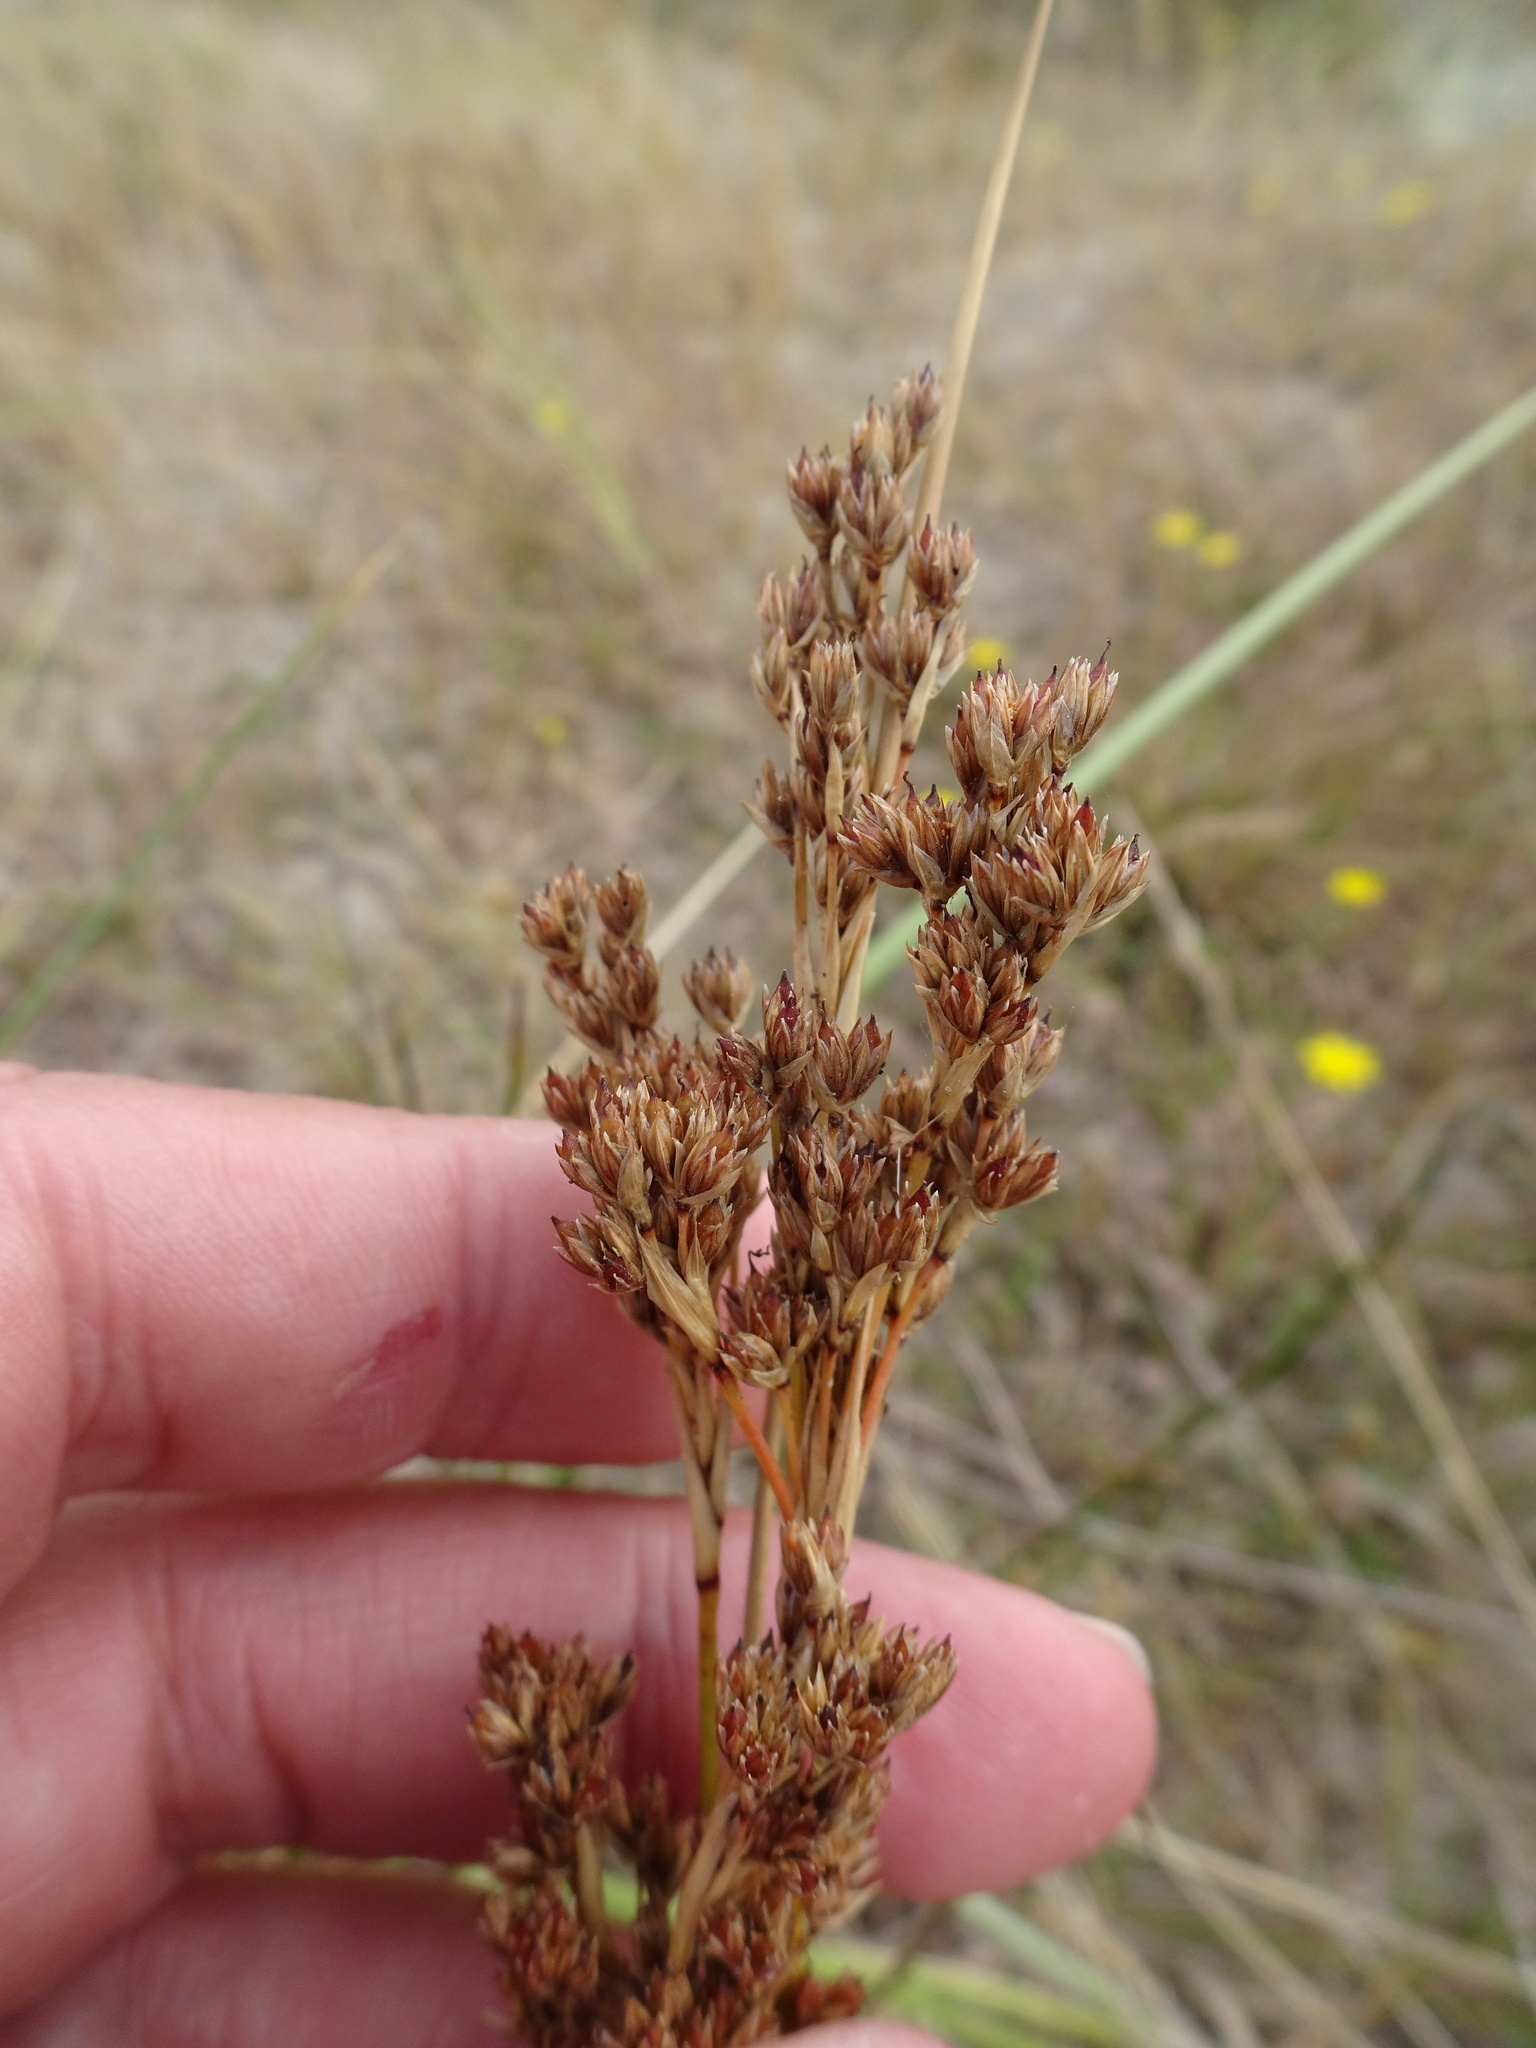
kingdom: Plantae
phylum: Tracheophyta
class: Liliopsida
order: Poales
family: Juncaceae
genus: Juncus
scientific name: Juncus maritimus
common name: Sea rush
